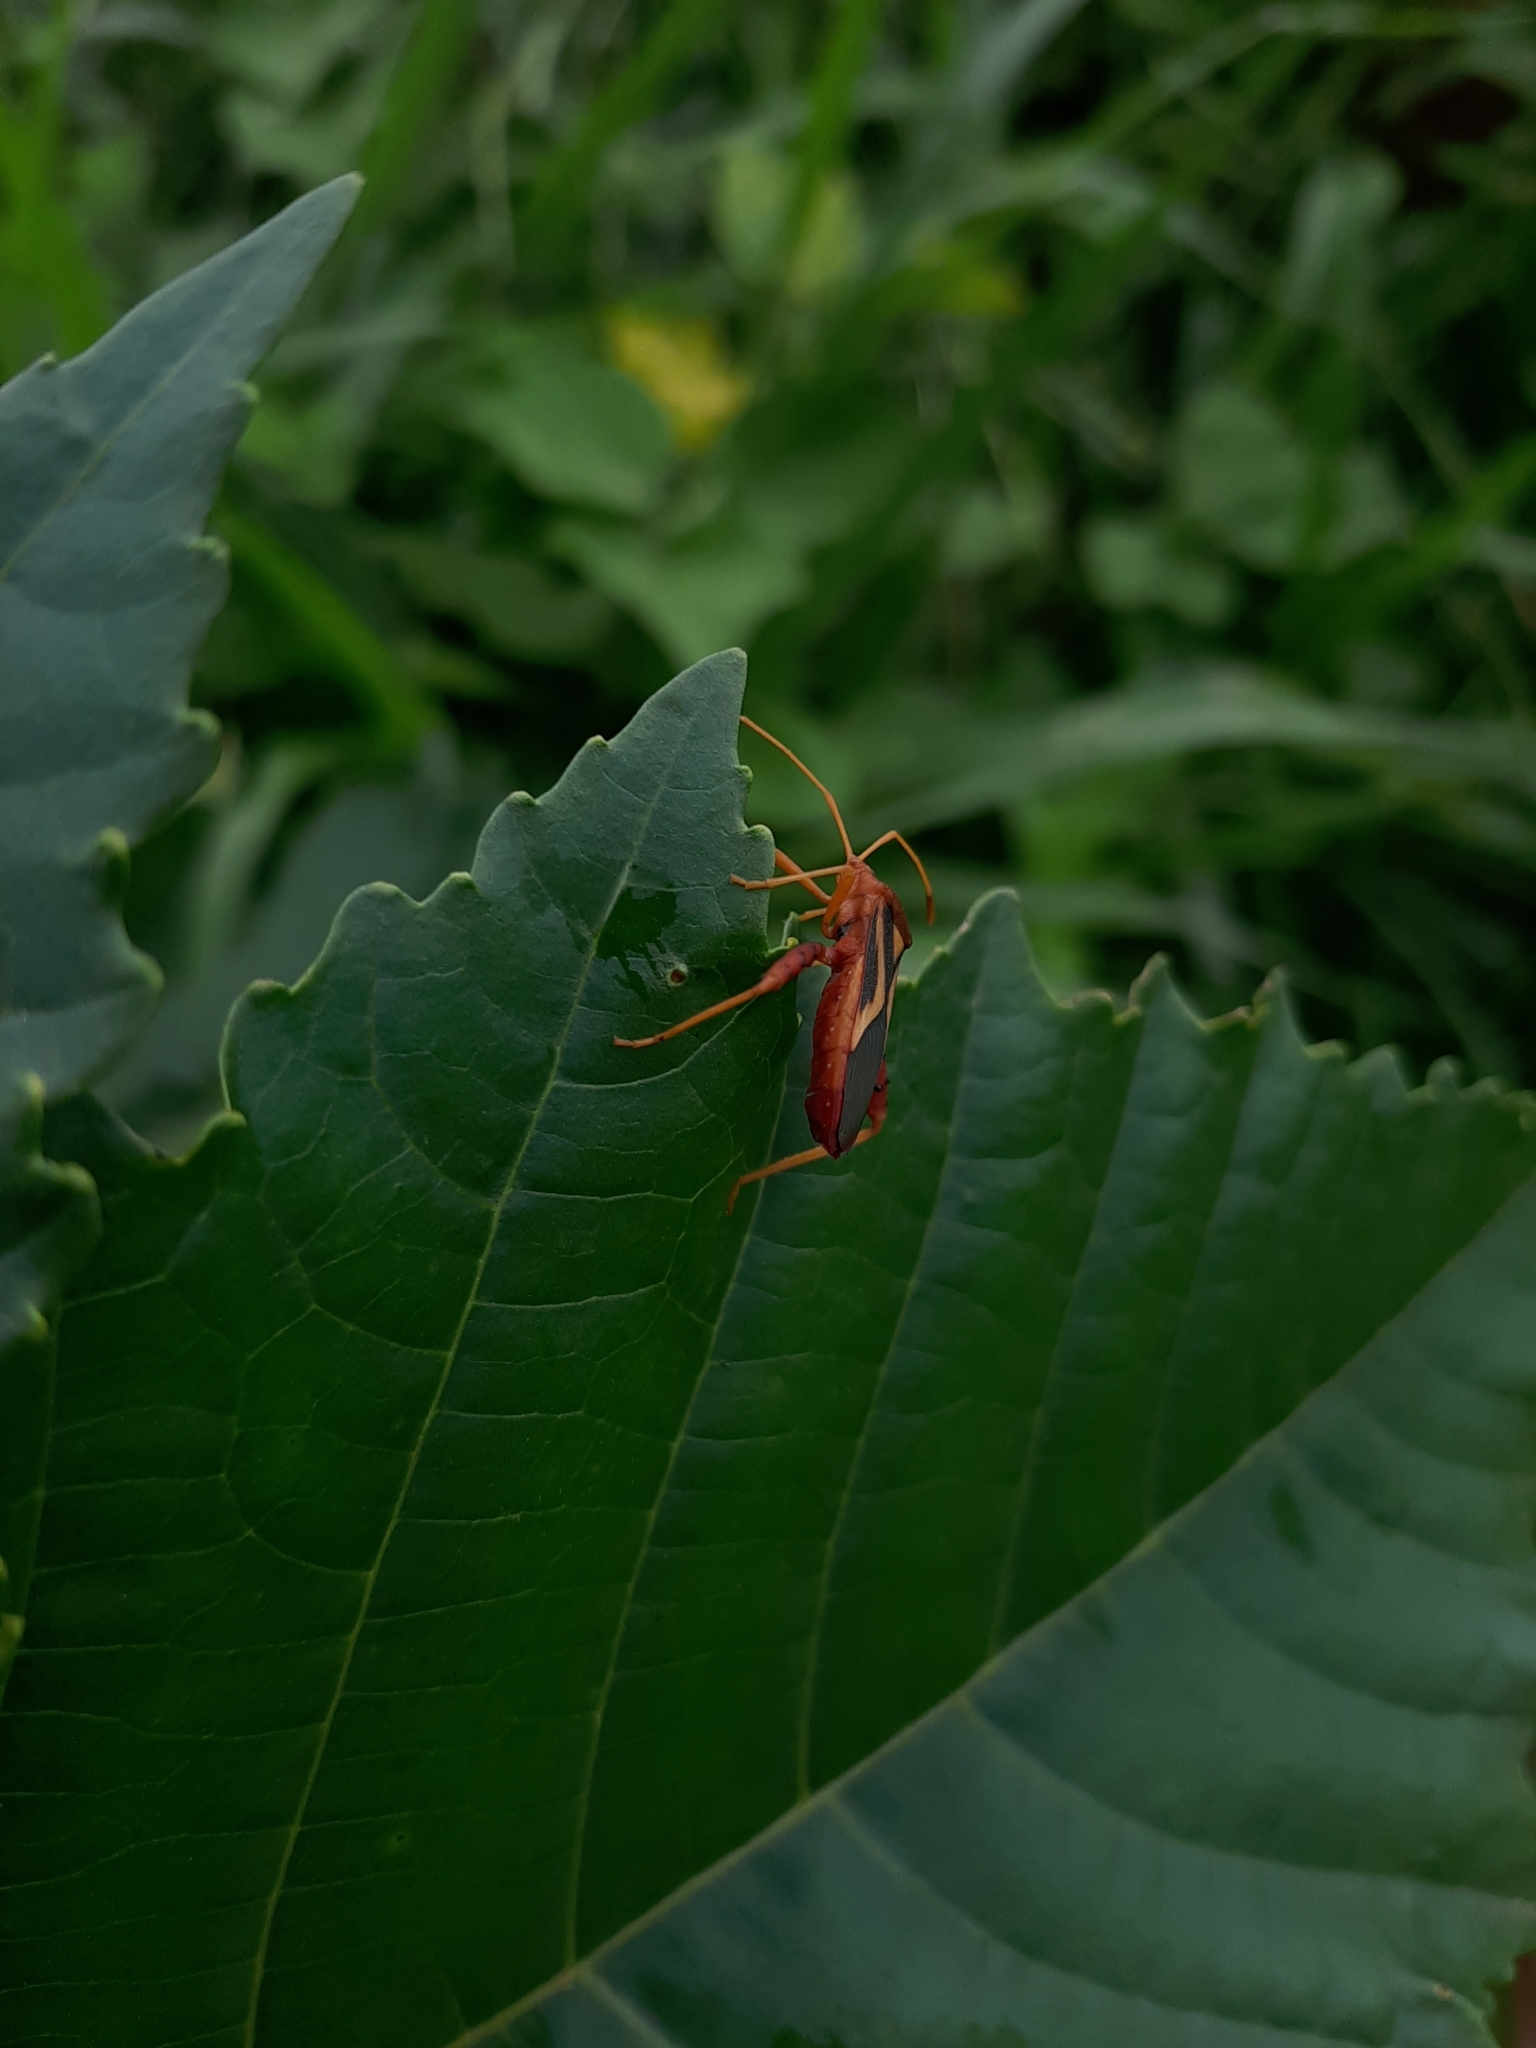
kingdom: Animalia
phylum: Arthropoda
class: Insecta
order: Hemiptera
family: Coreidae
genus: Crinocerus
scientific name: Crinocerus sanctus
